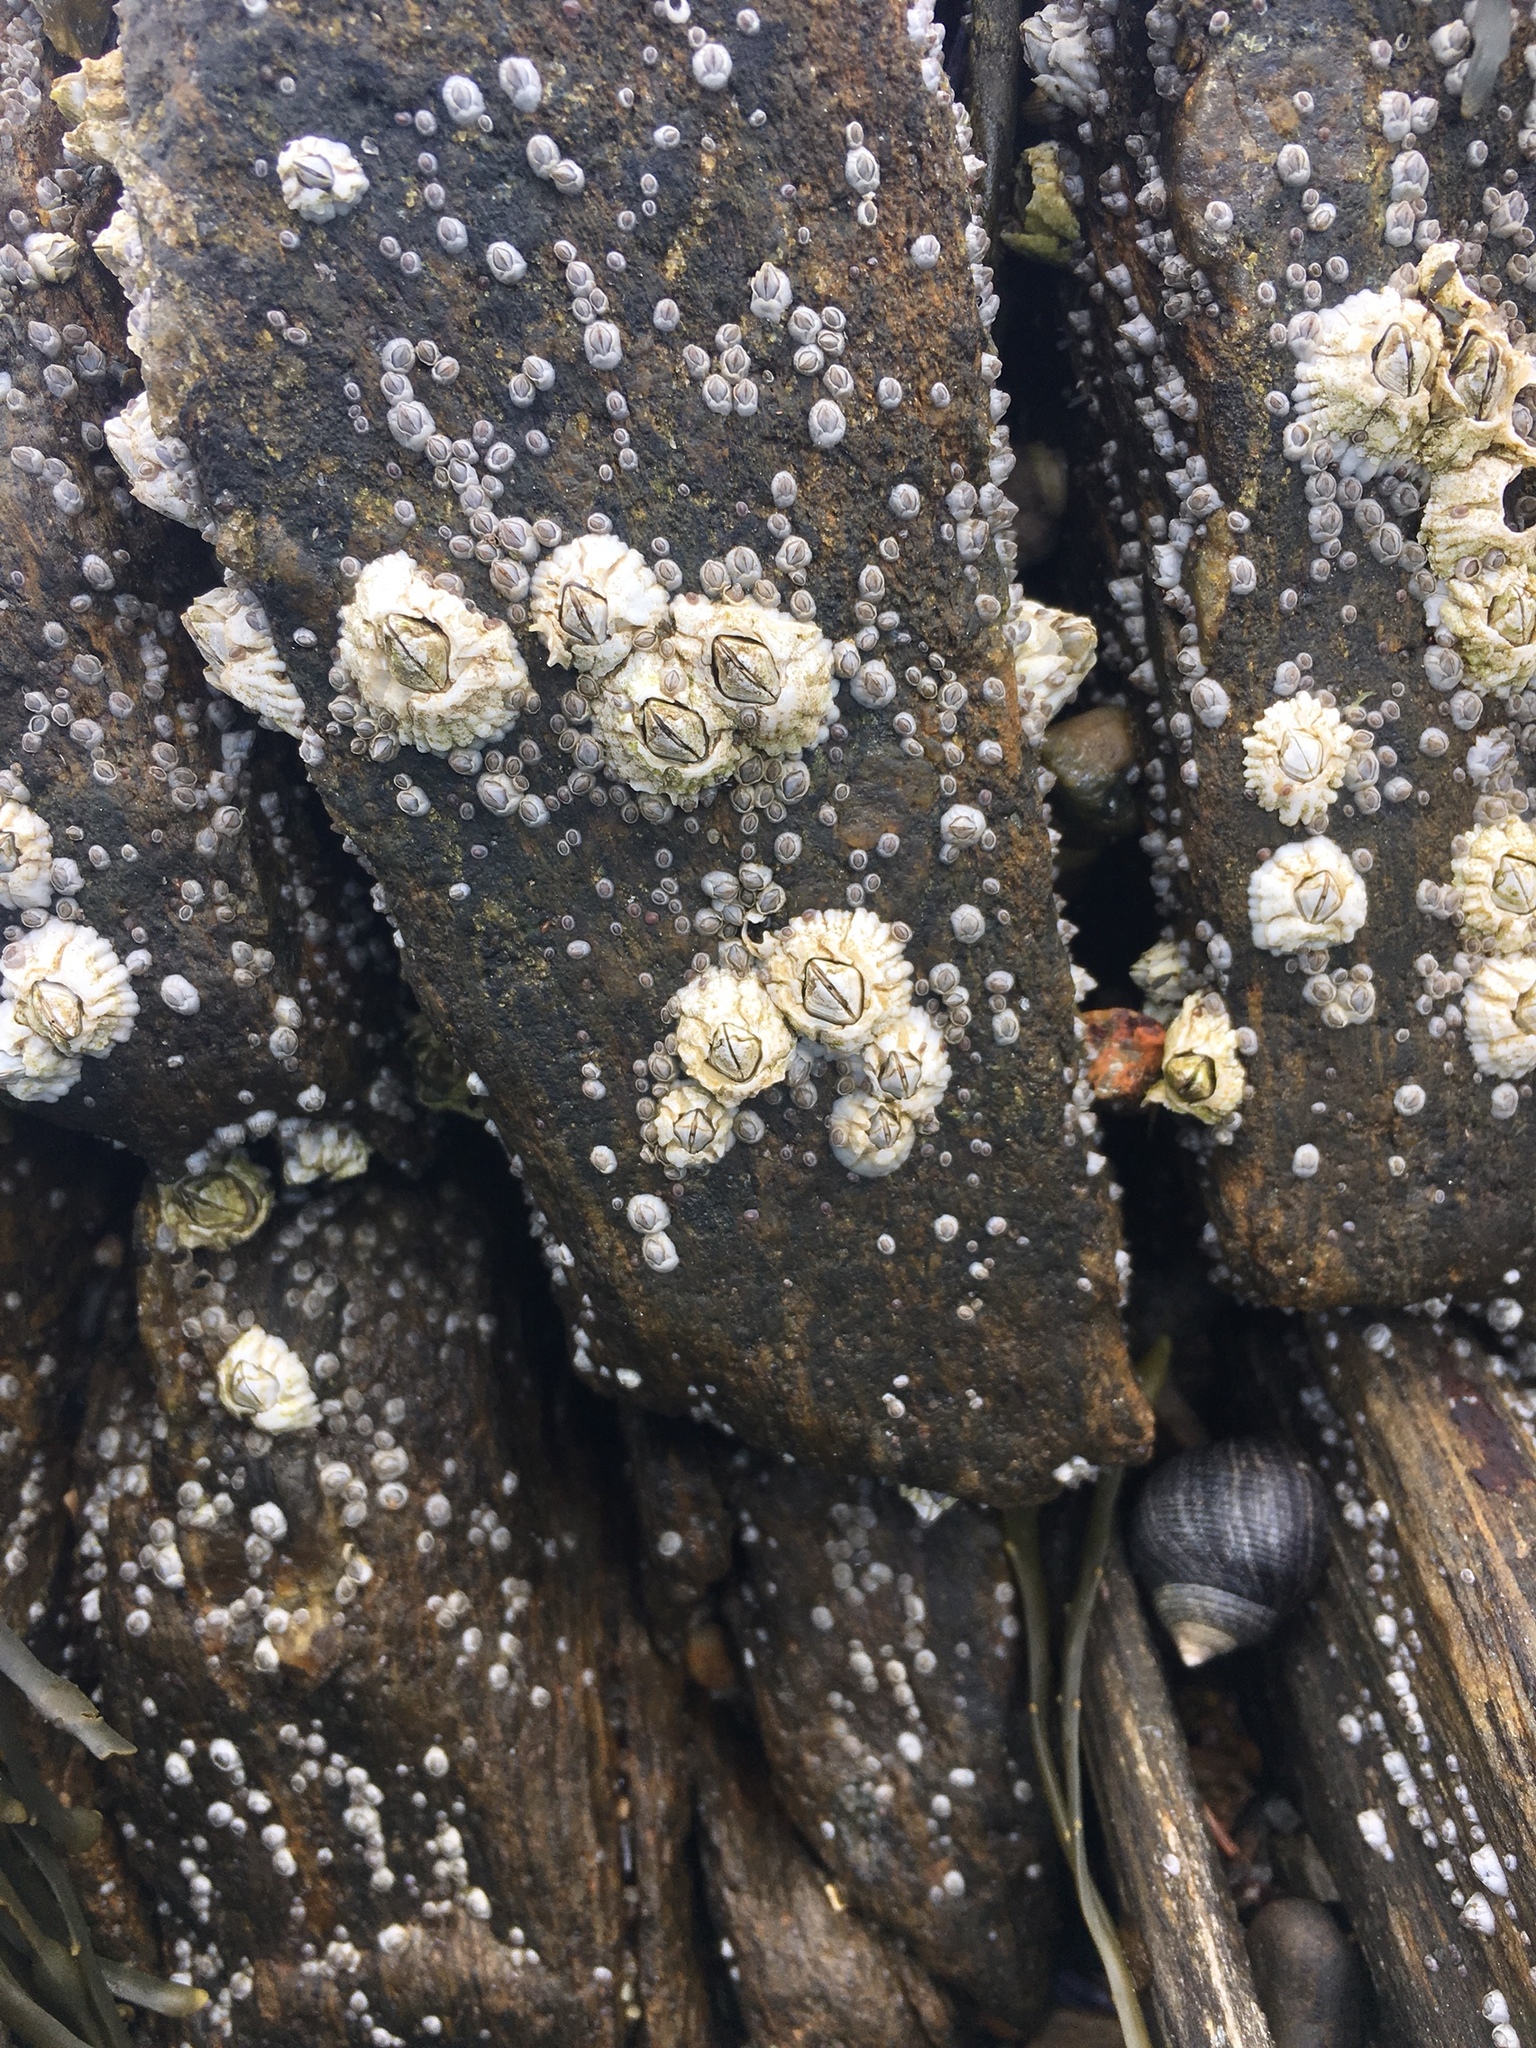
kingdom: Animalia
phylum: Arthropoda
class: Maxillopoda
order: Sessilia
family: Archaeobalanidae
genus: Semibalanus
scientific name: Semibalanus balanoides
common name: Acorn barnacle
